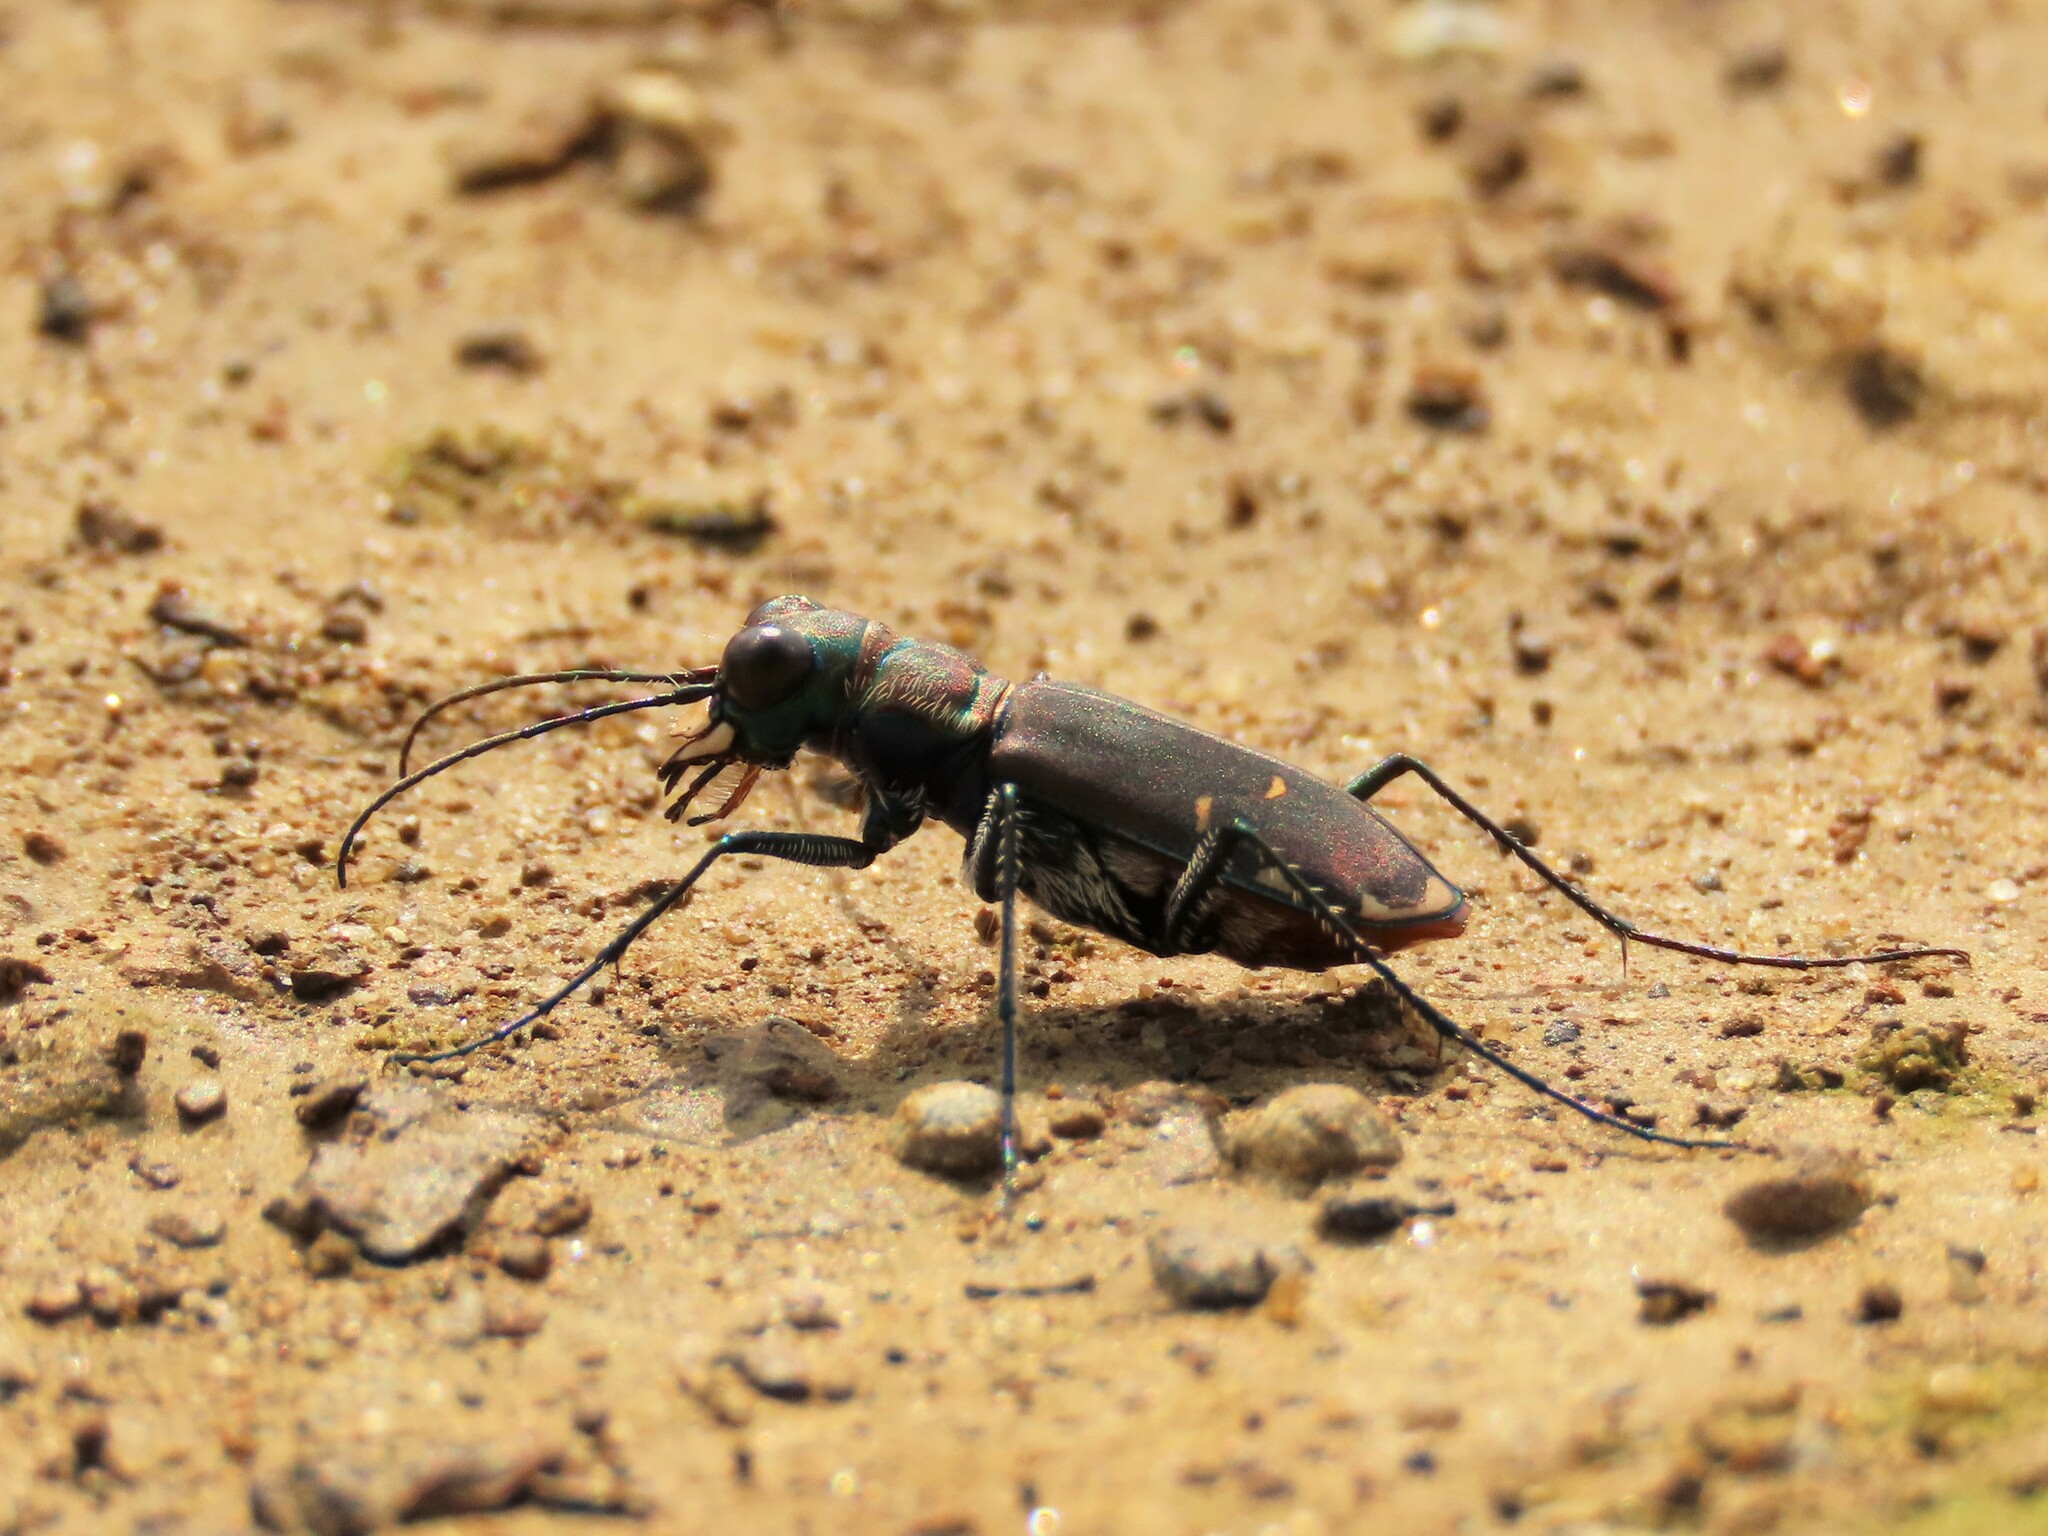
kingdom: Animalia
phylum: Arthropoda
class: Insecta
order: Coleoptera
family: Carabidae
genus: Cicindela
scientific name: Cicindela rufiventris
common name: Eastern red-bellied tiger beetle
